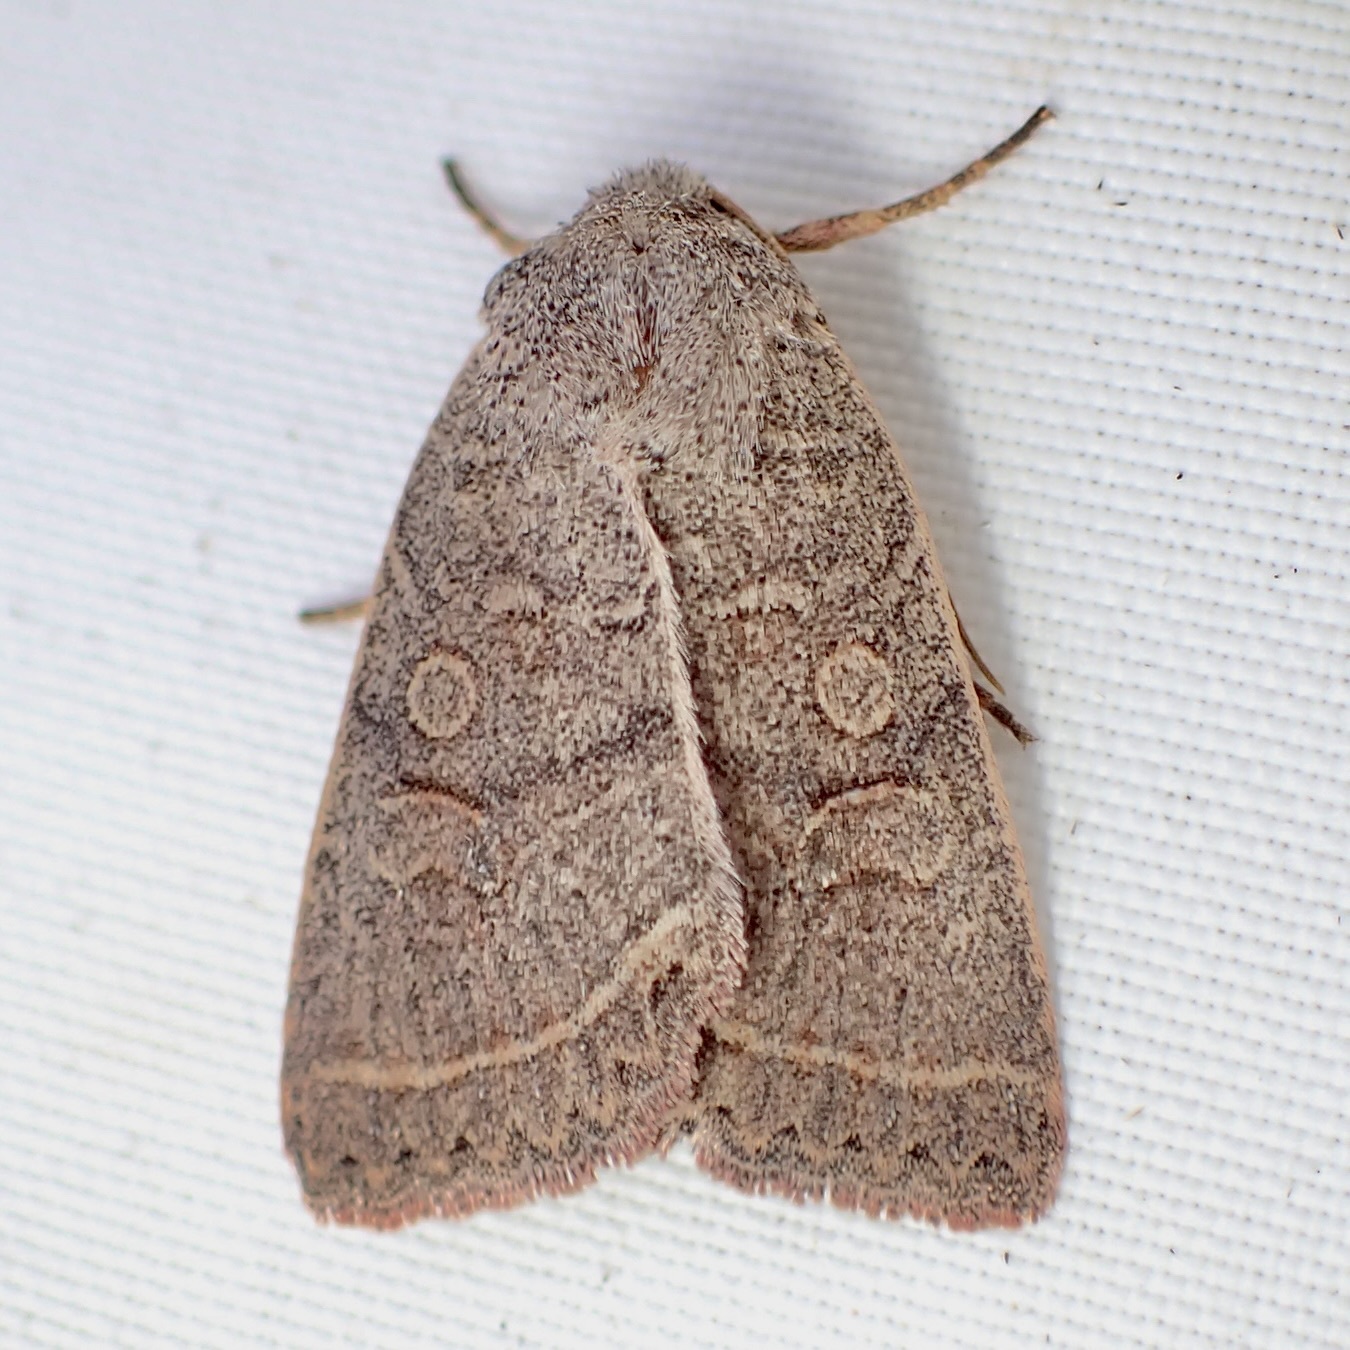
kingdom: Animalia
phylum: Arthropoda
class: Insecta
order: Lepidoptera
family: Noctuidae
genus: Homorthodes
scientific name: Homorthodes rectiflava
